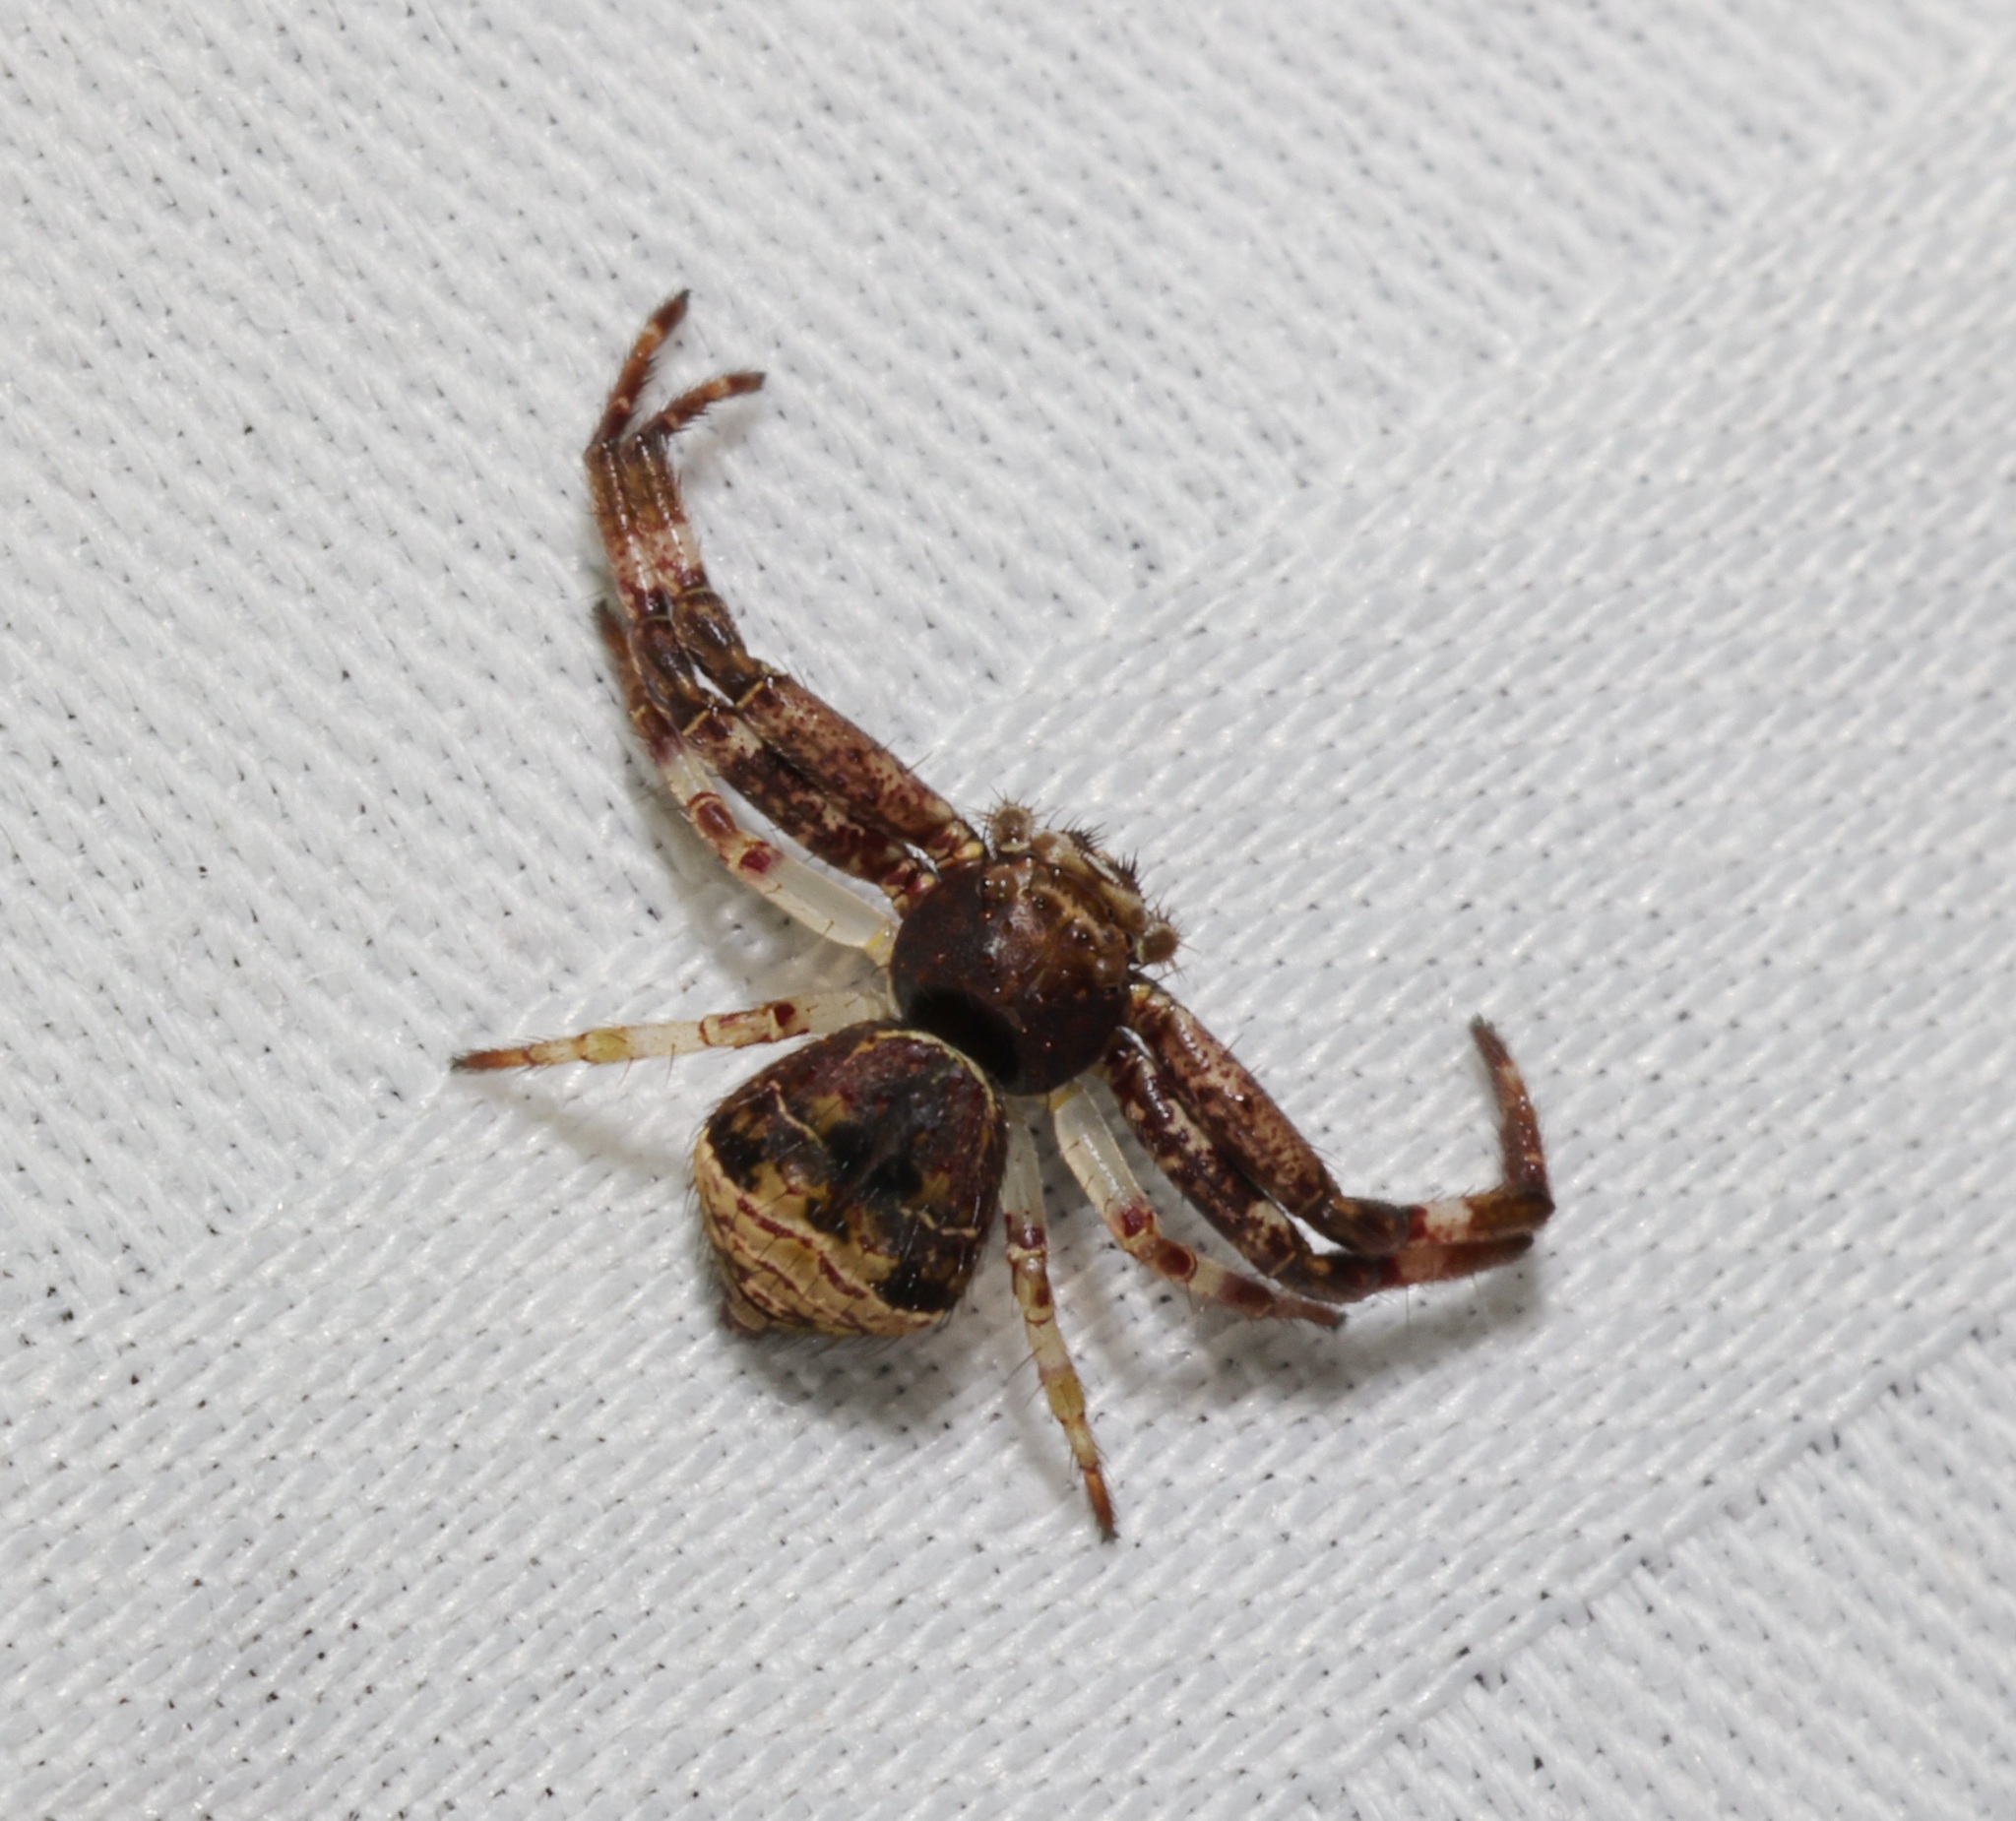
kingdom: Animalia
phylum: Arthropoda
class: Arachnida
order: Araneae
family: Thomisidae
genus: Strigoplus
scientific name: Strigoplus guizhouensis
